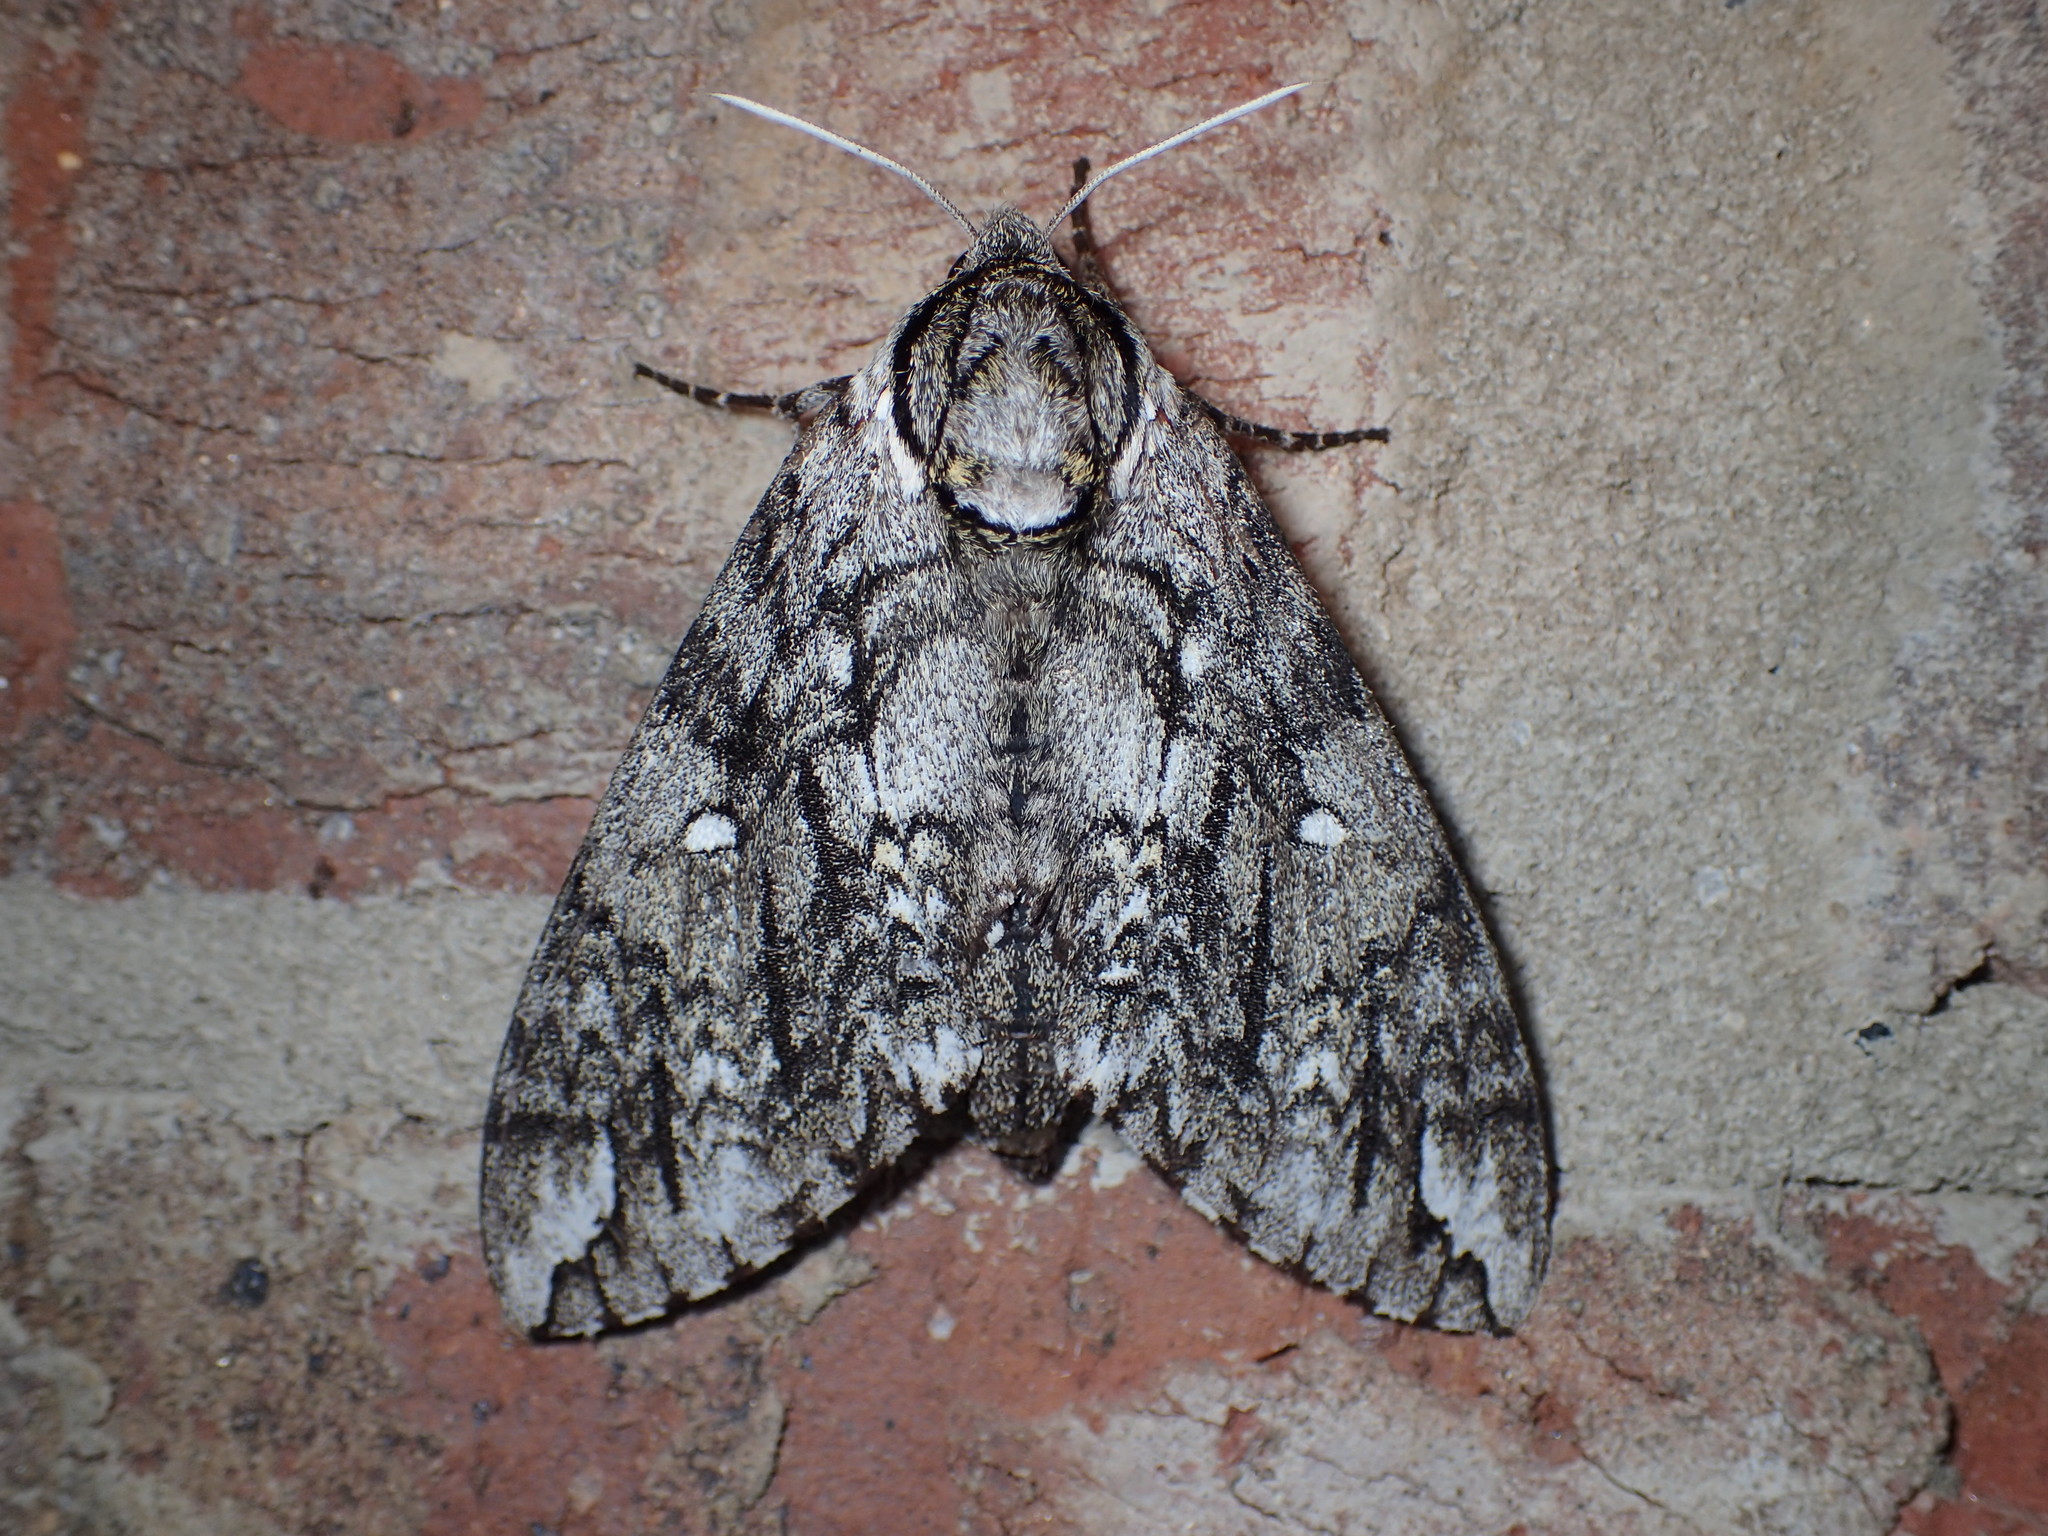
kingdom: Animalia
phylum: Arthropoda
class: Insecta
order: Lepidoptera
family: Sphingidae
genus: Ceratomia
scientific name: Ceratomia undulosa
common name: Waved sphinx
